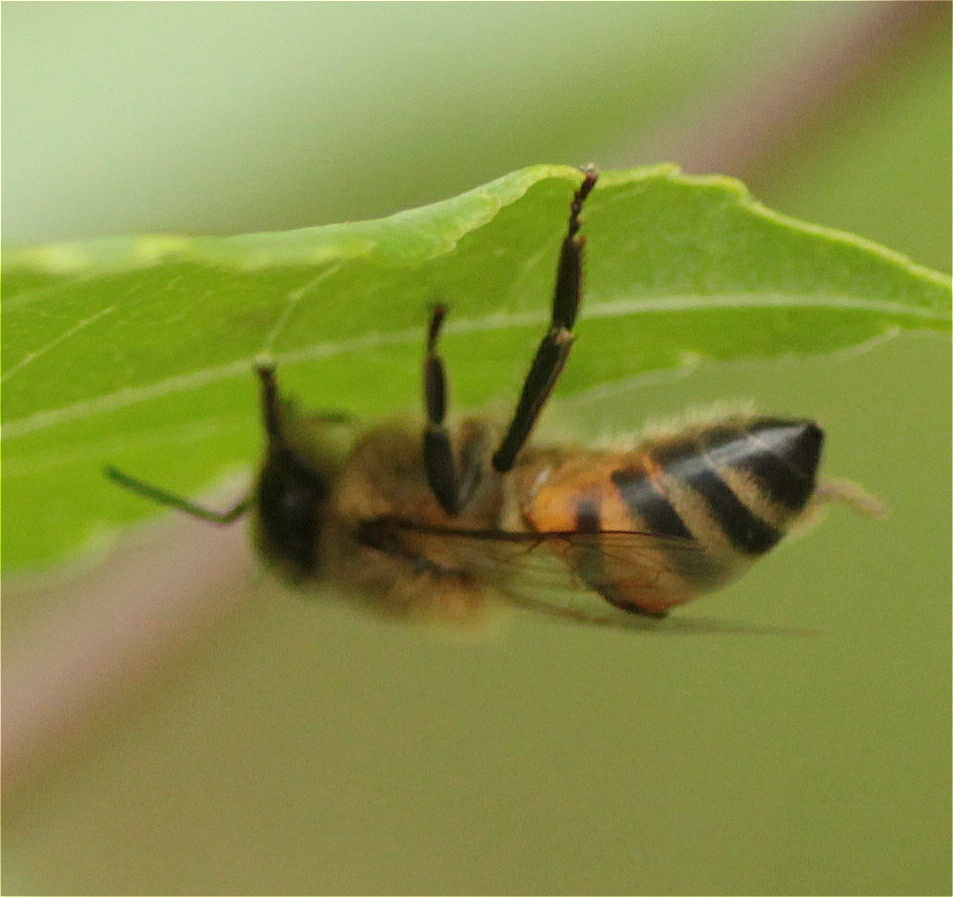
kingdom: Animalia
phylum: Arthropoda
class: Insecta
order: Hymenoptera
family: Apidae
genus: Apis
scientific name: Apis mellifera
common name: Honey bee
